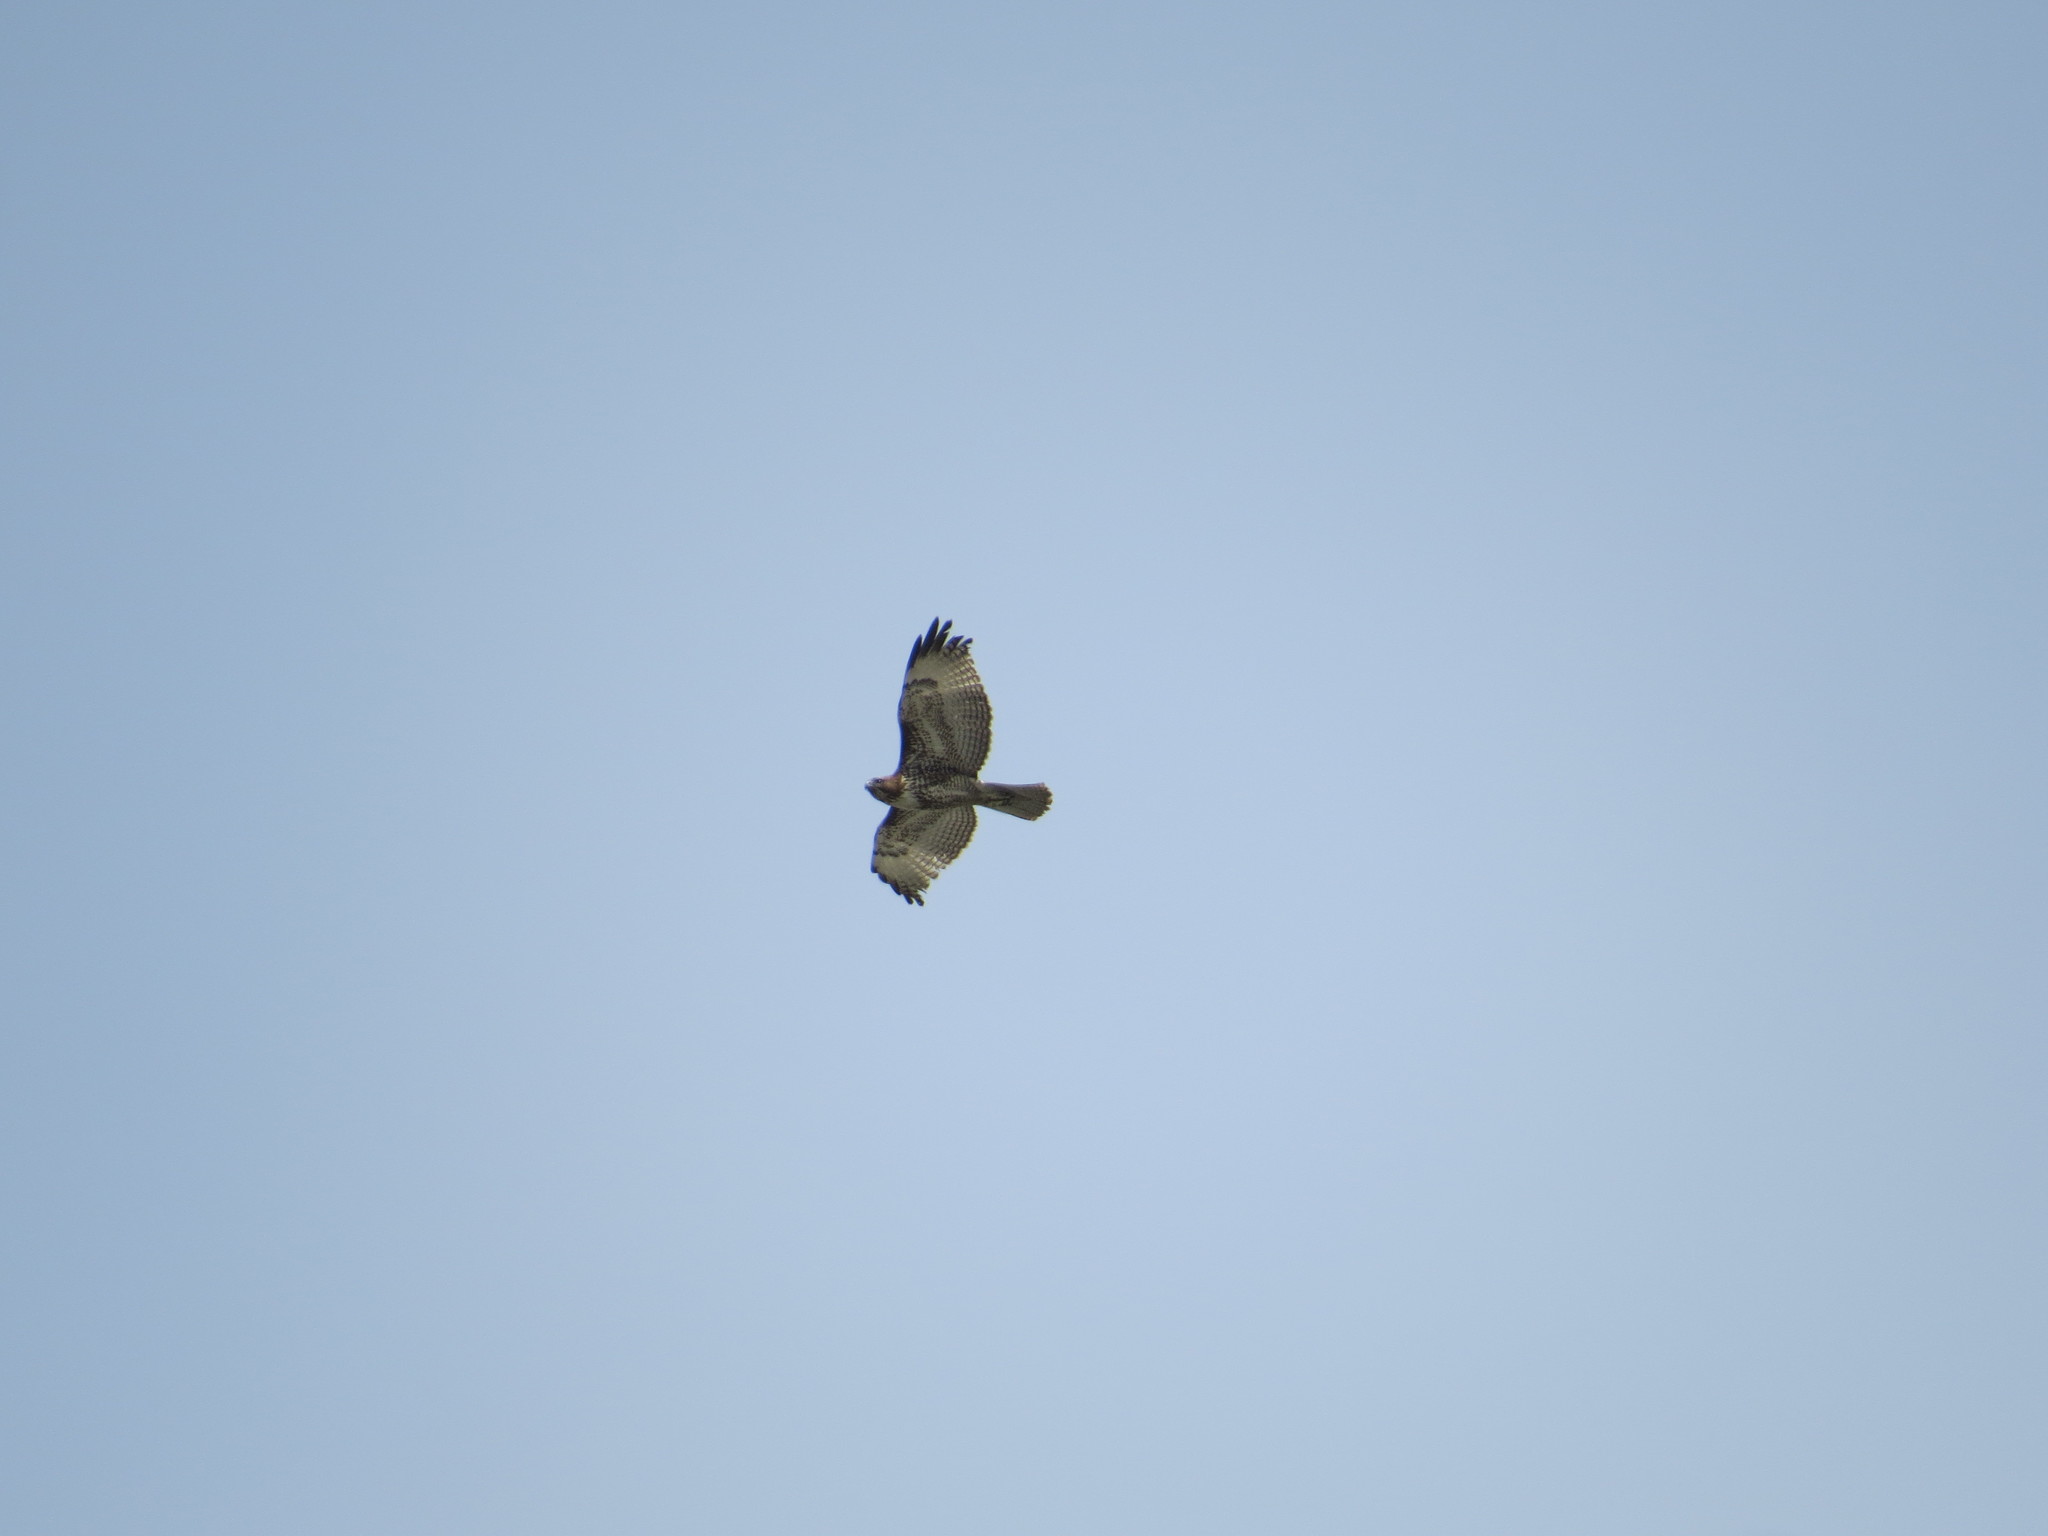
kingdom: Animalia
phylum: Chordata
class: Aves
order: Accipitriformes
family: Accipitridae
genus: Buteo
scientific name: Buteo jamaicensis
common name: Red-tailed hawk
